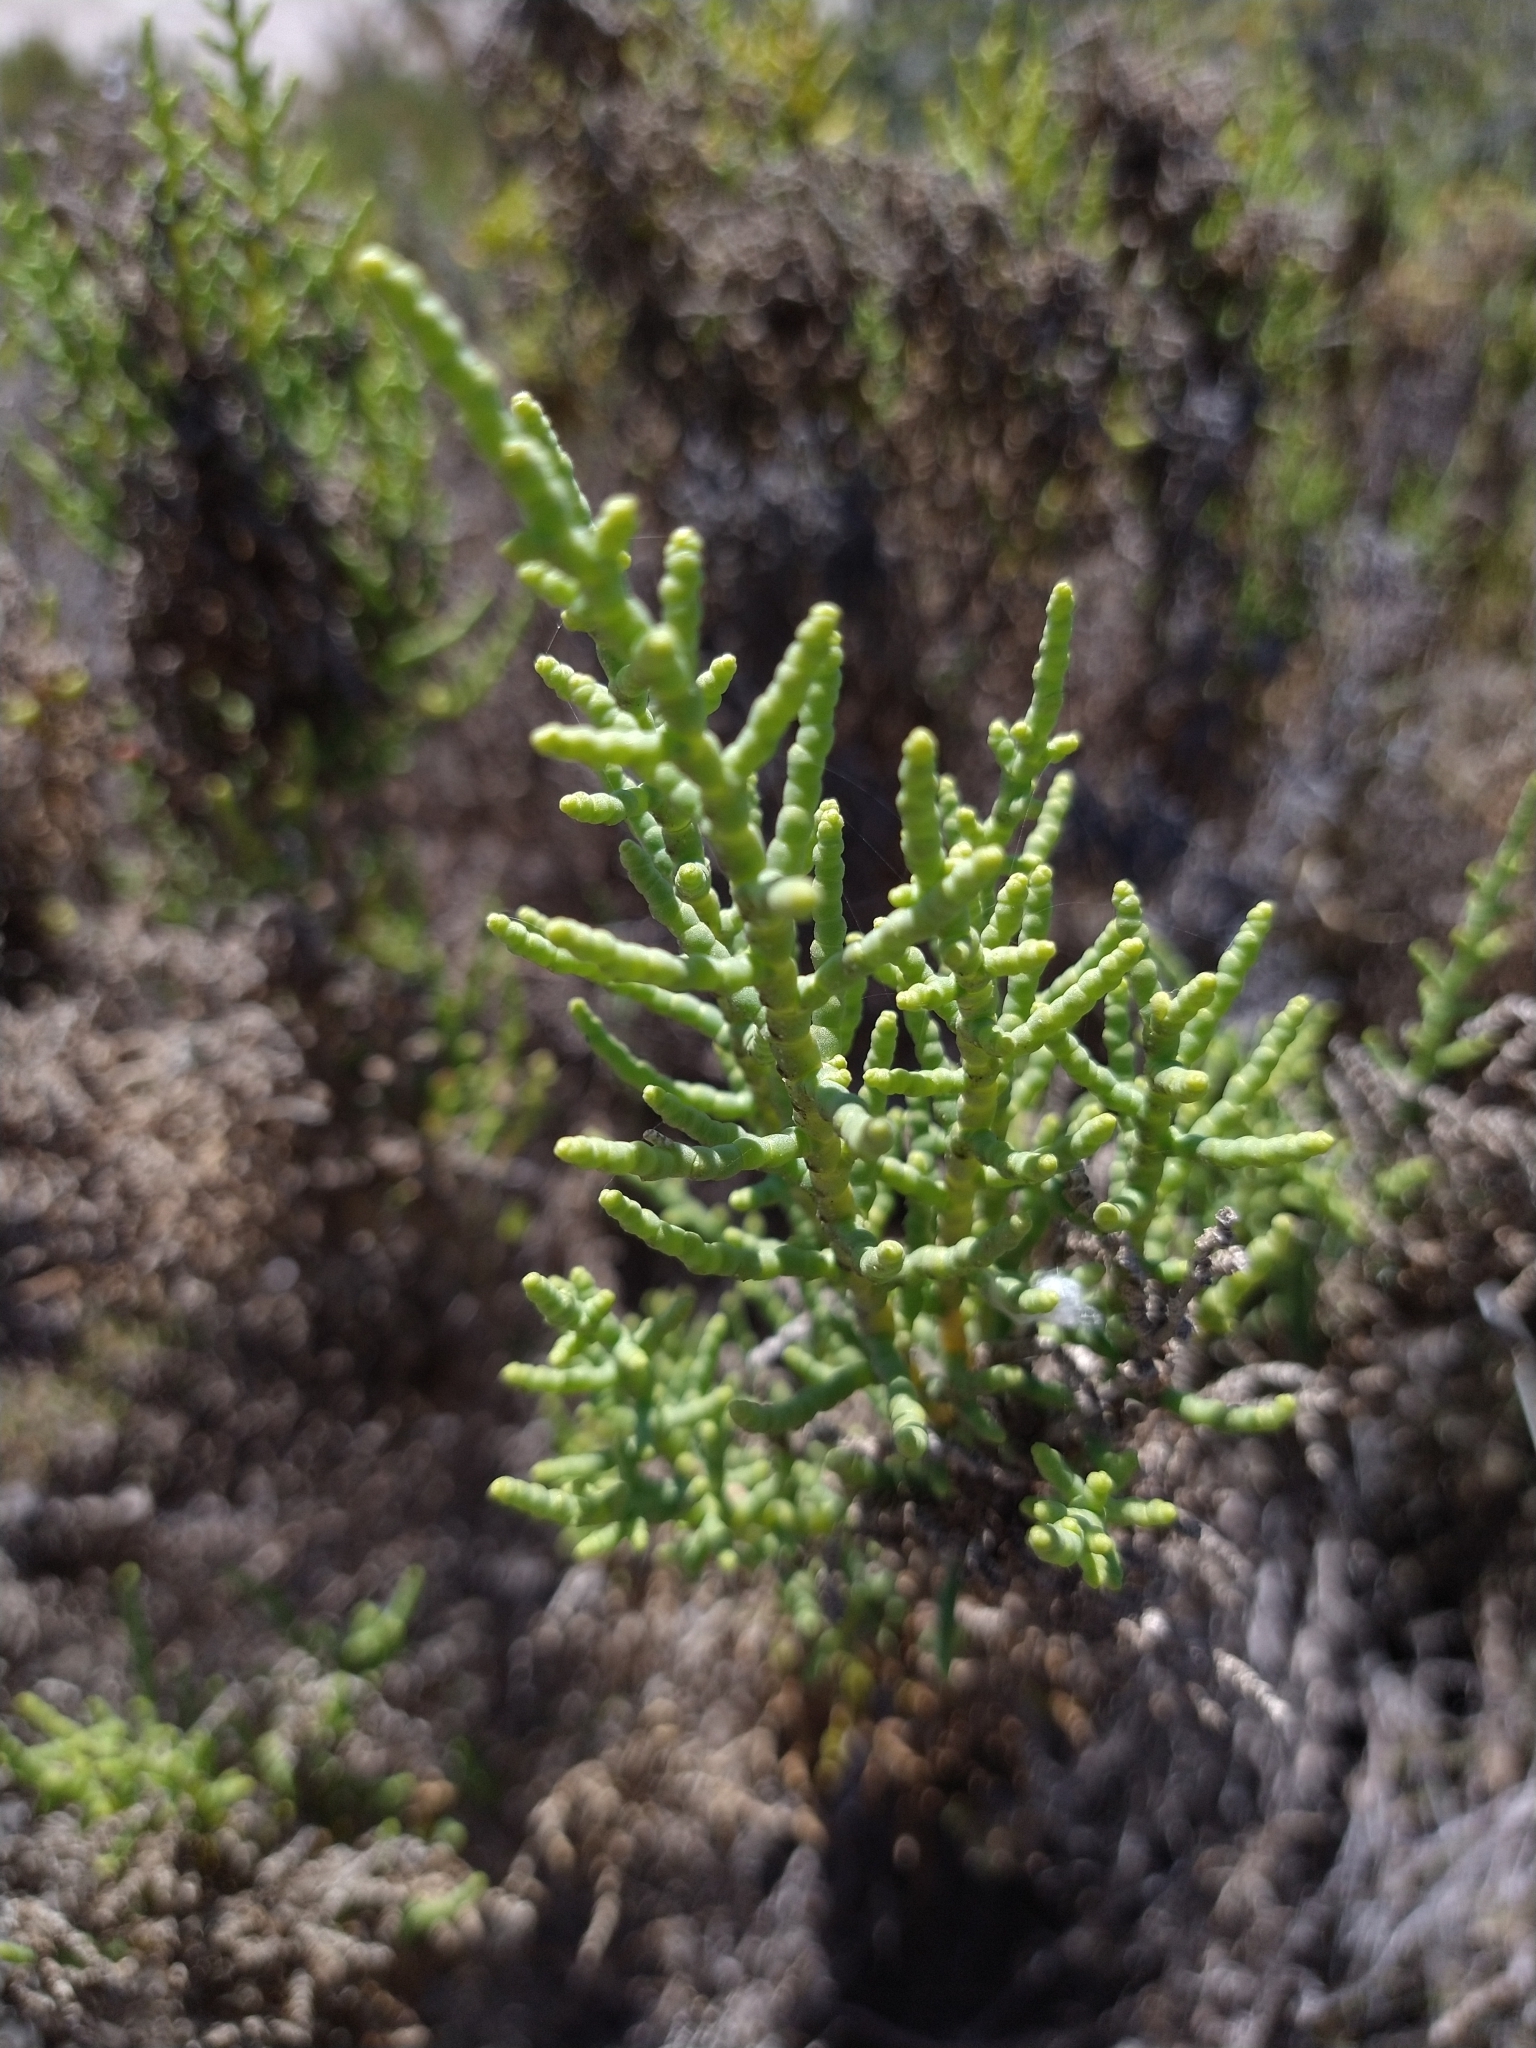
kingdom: Plantae
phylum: Tracheophyta
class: Magnoliopsida
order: Caryophyllales
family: Amaranthaceae
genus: Allenrolfea
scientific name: Allenrolfea occidentalis
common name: Iodine-bush
